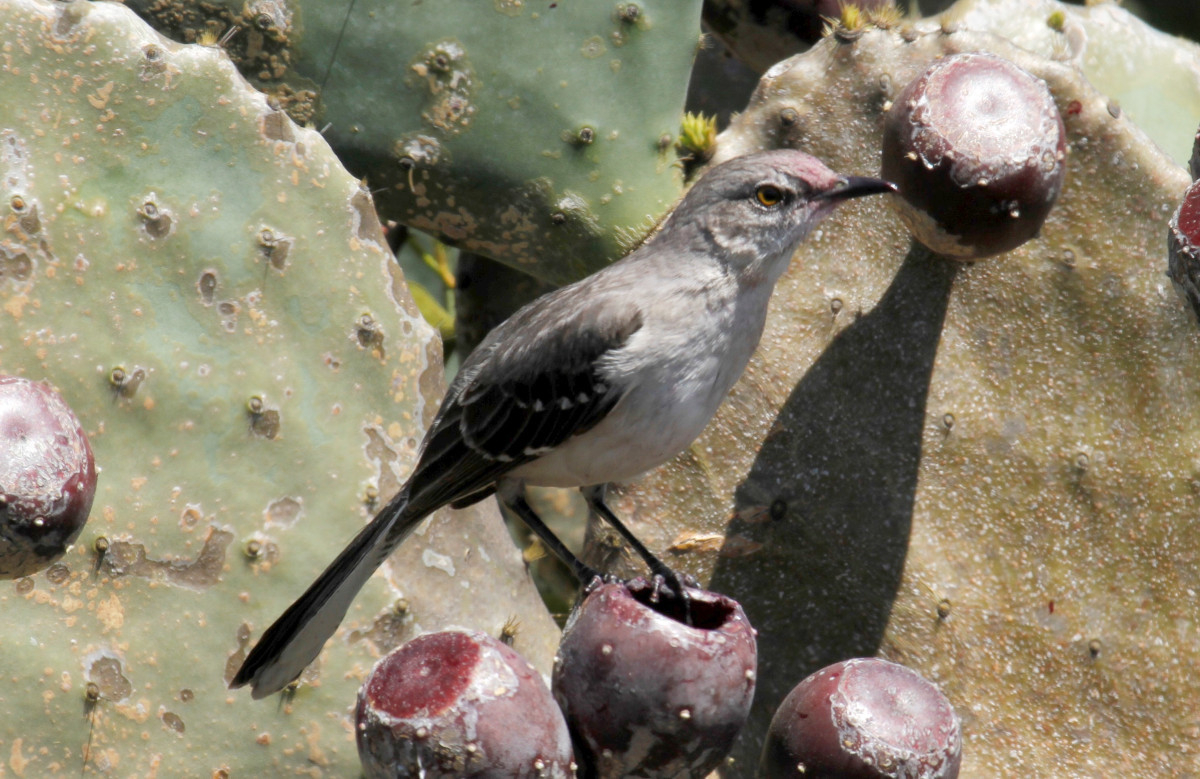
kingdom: Animalia
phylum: Chordata
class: Aves
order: Passeriformes
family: Mimidae
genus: Mimus
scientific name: Mimus polyglottos
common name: Northern mockingbird
